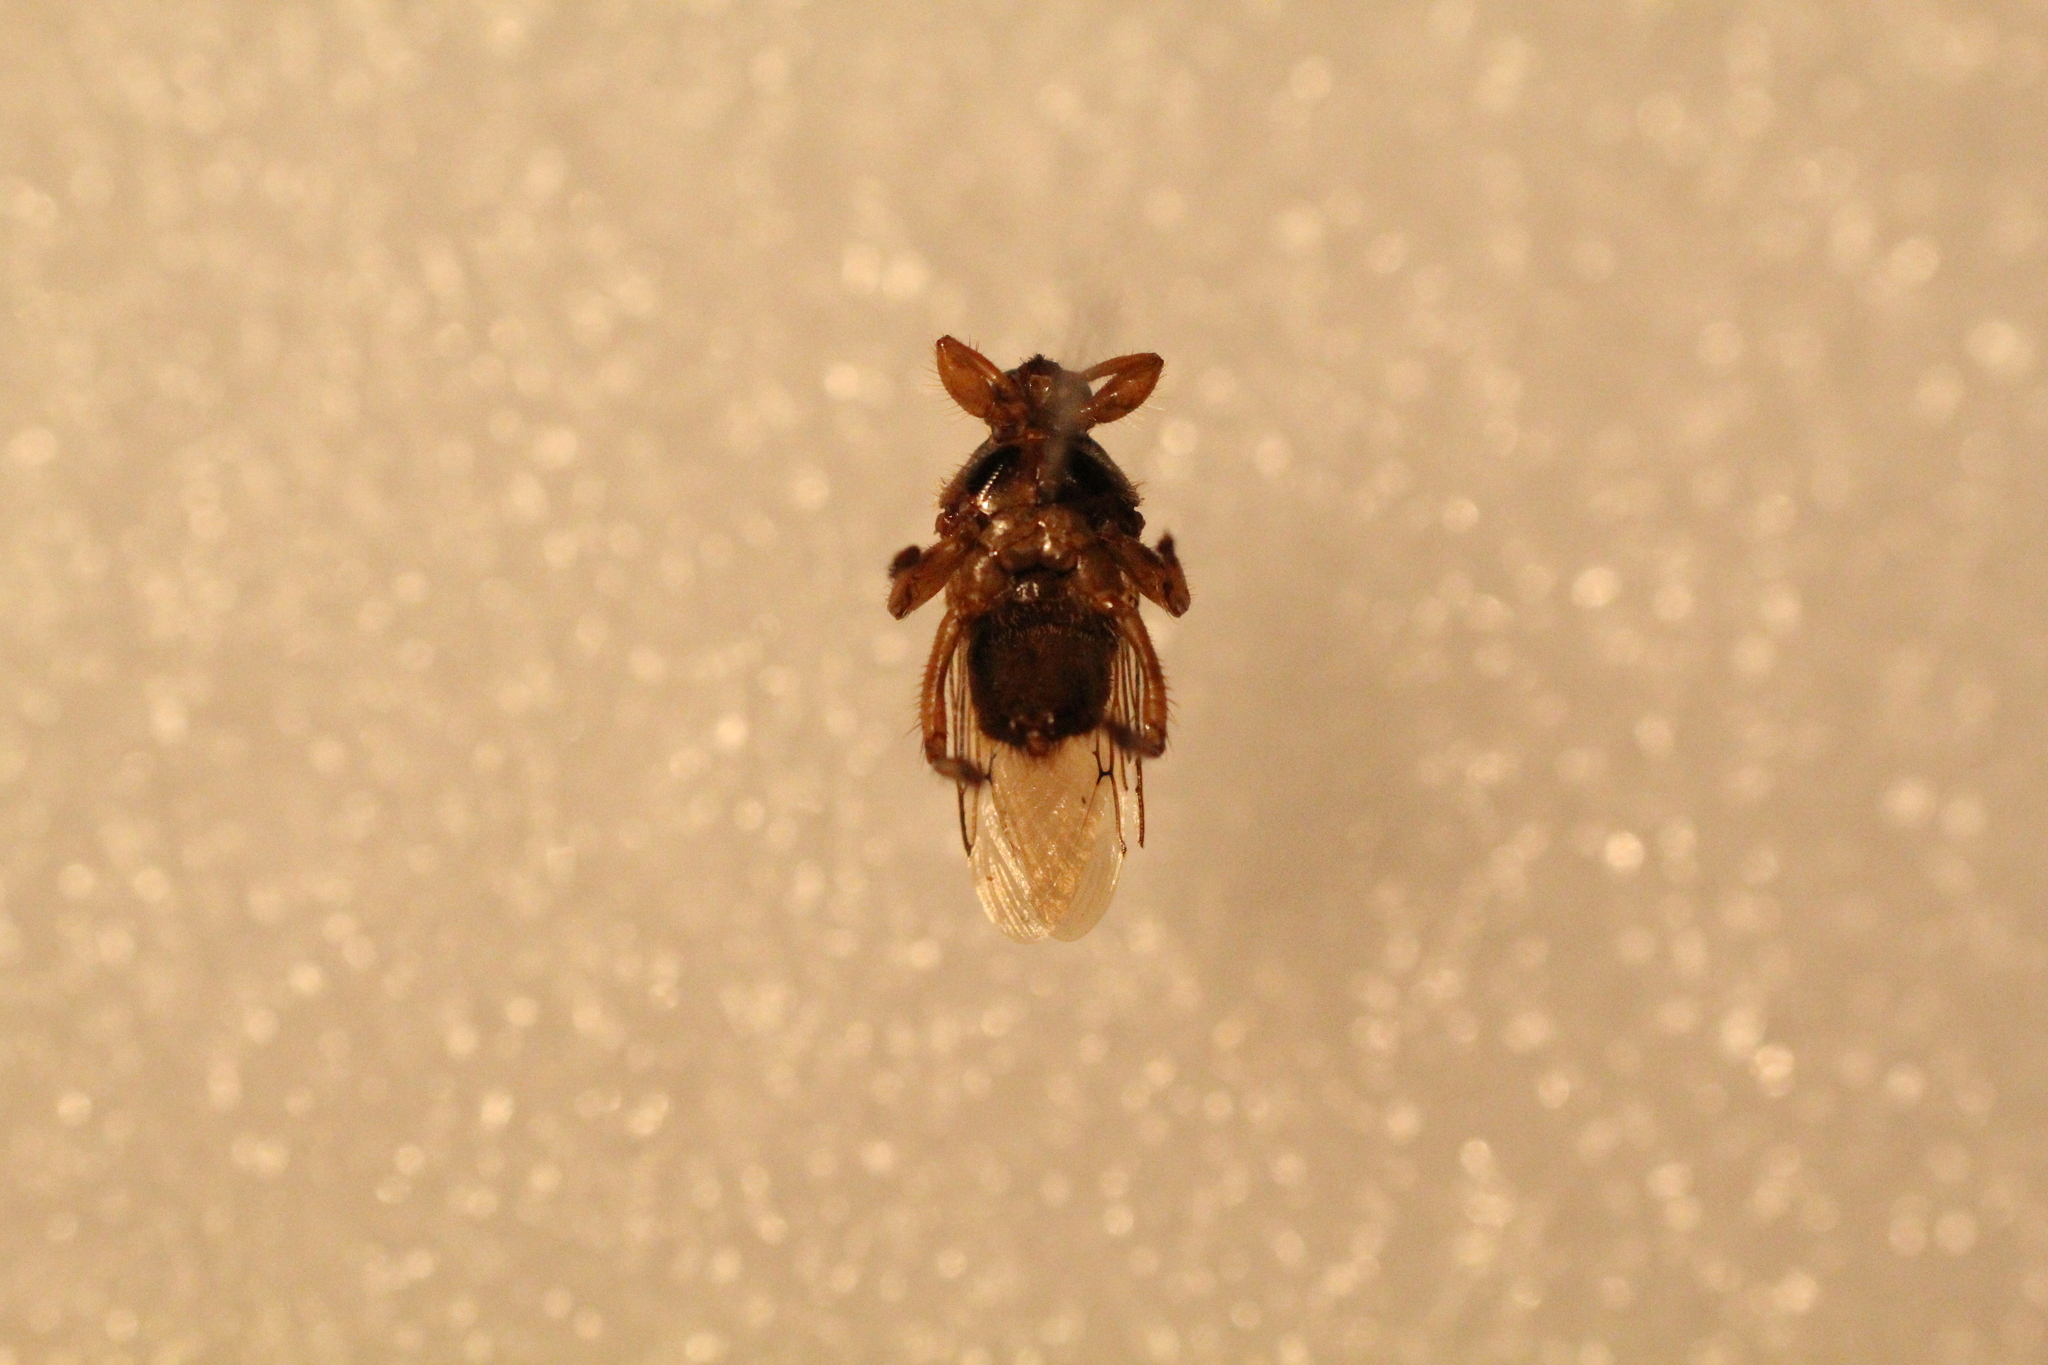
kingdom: Animalia
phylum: Arthropoda
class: Insecta
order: Diptera
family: Hippoboscidae
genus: Hippobosca
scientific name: Hippobosca equina
